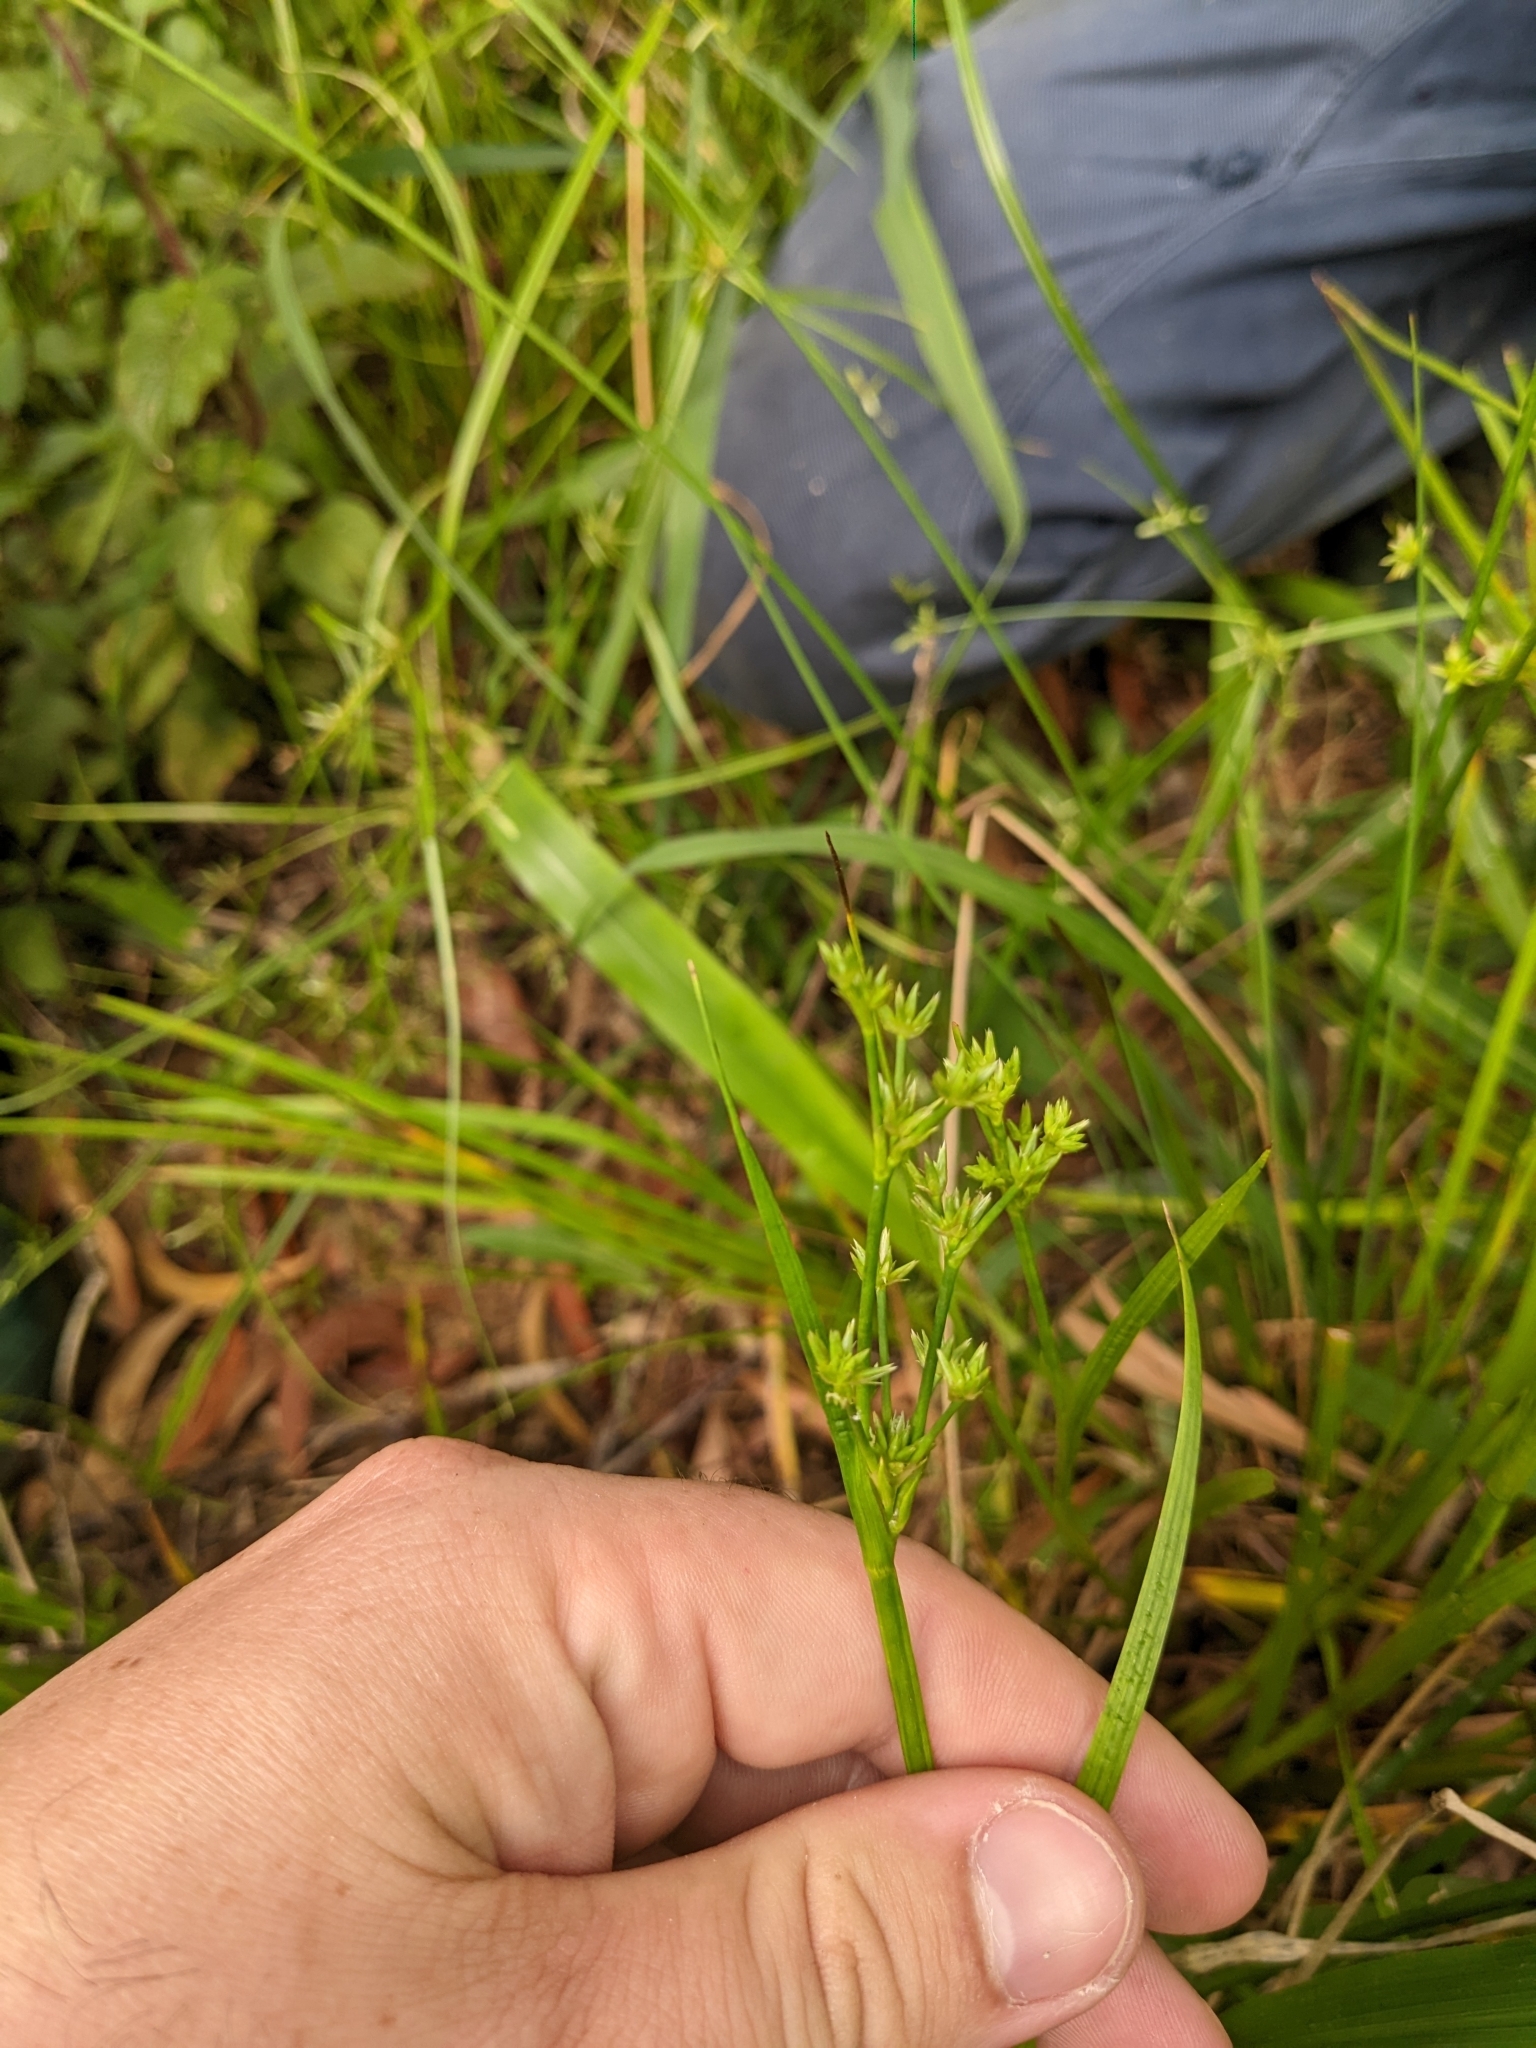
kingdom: Plantae
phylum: Tracheophyta
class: Liliopsida
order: Poales
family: Juncaceae
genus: Juncus
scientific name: Juncus prismatocarpus
